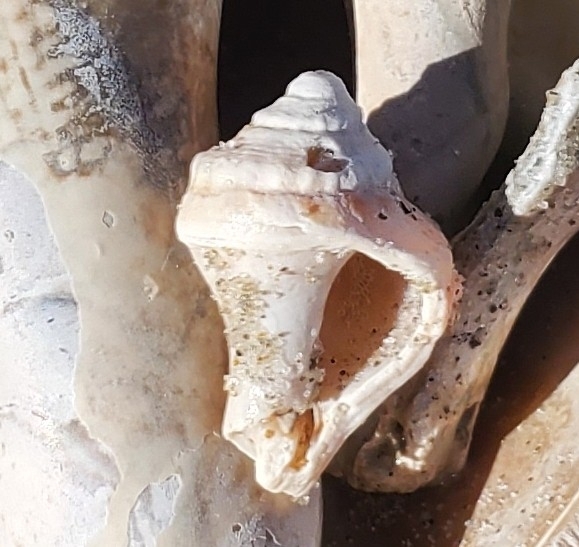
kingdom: Animalia
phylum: Mollusca
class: Gastropoda
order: Neogastropoda
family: Busyconidae
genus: Busycotypus
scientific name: Busycotypus canaliculatus
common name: Channeled whelk
